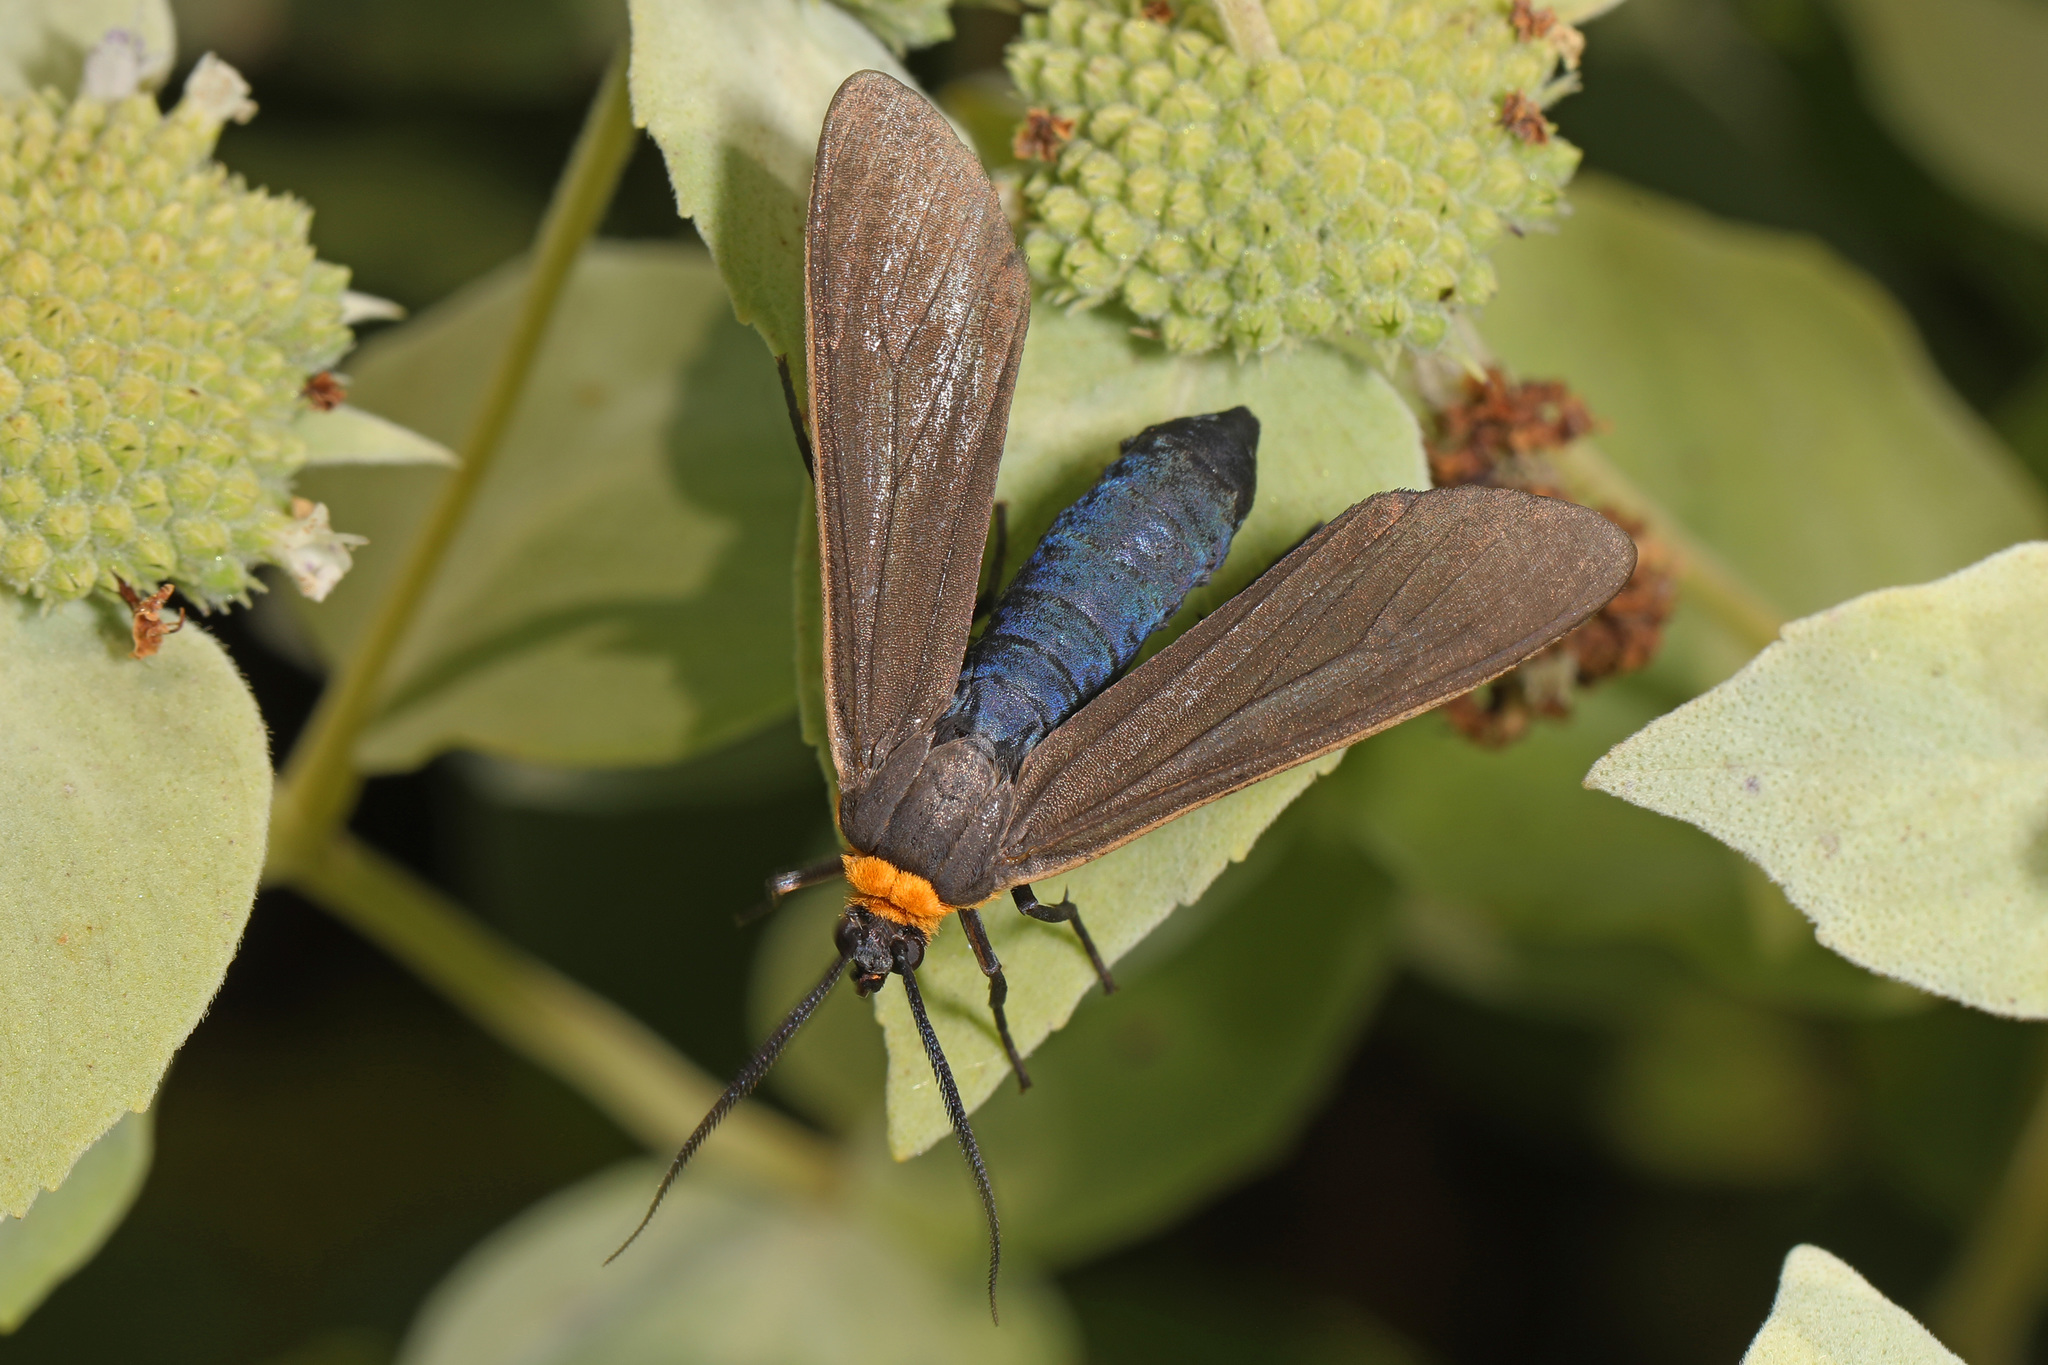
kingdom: Animalia
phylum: Arthropoda
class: Insecta
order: Lepidoptera
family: Erebidae
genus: Cisseps
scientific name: Cisseps fulvicollis
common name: Yellow-collared scape moth
